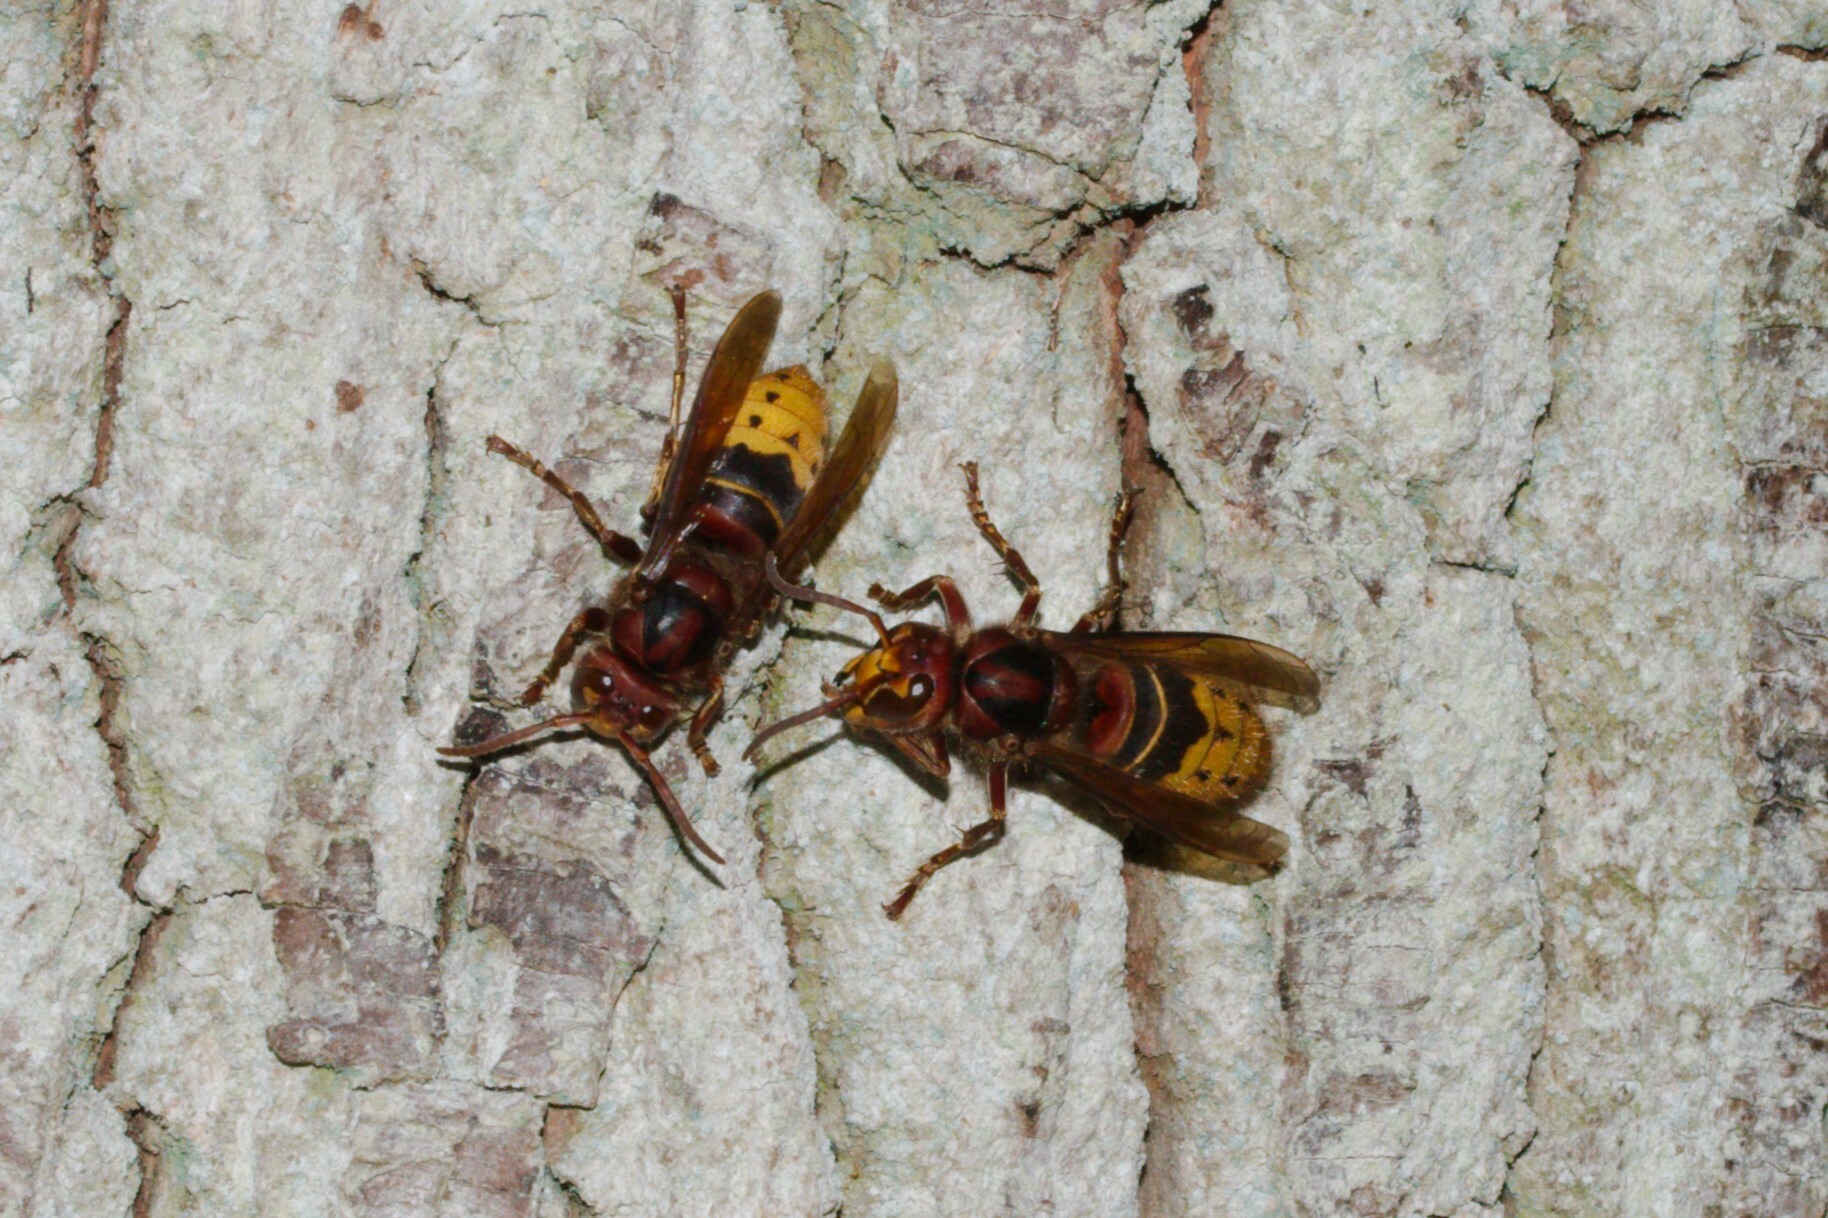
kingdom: Animalia
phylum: Arthropoda
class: Insecta
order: Hymenoptera
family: Vespidae
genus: Vespa
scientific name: Vespa crabro
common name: Hornet
